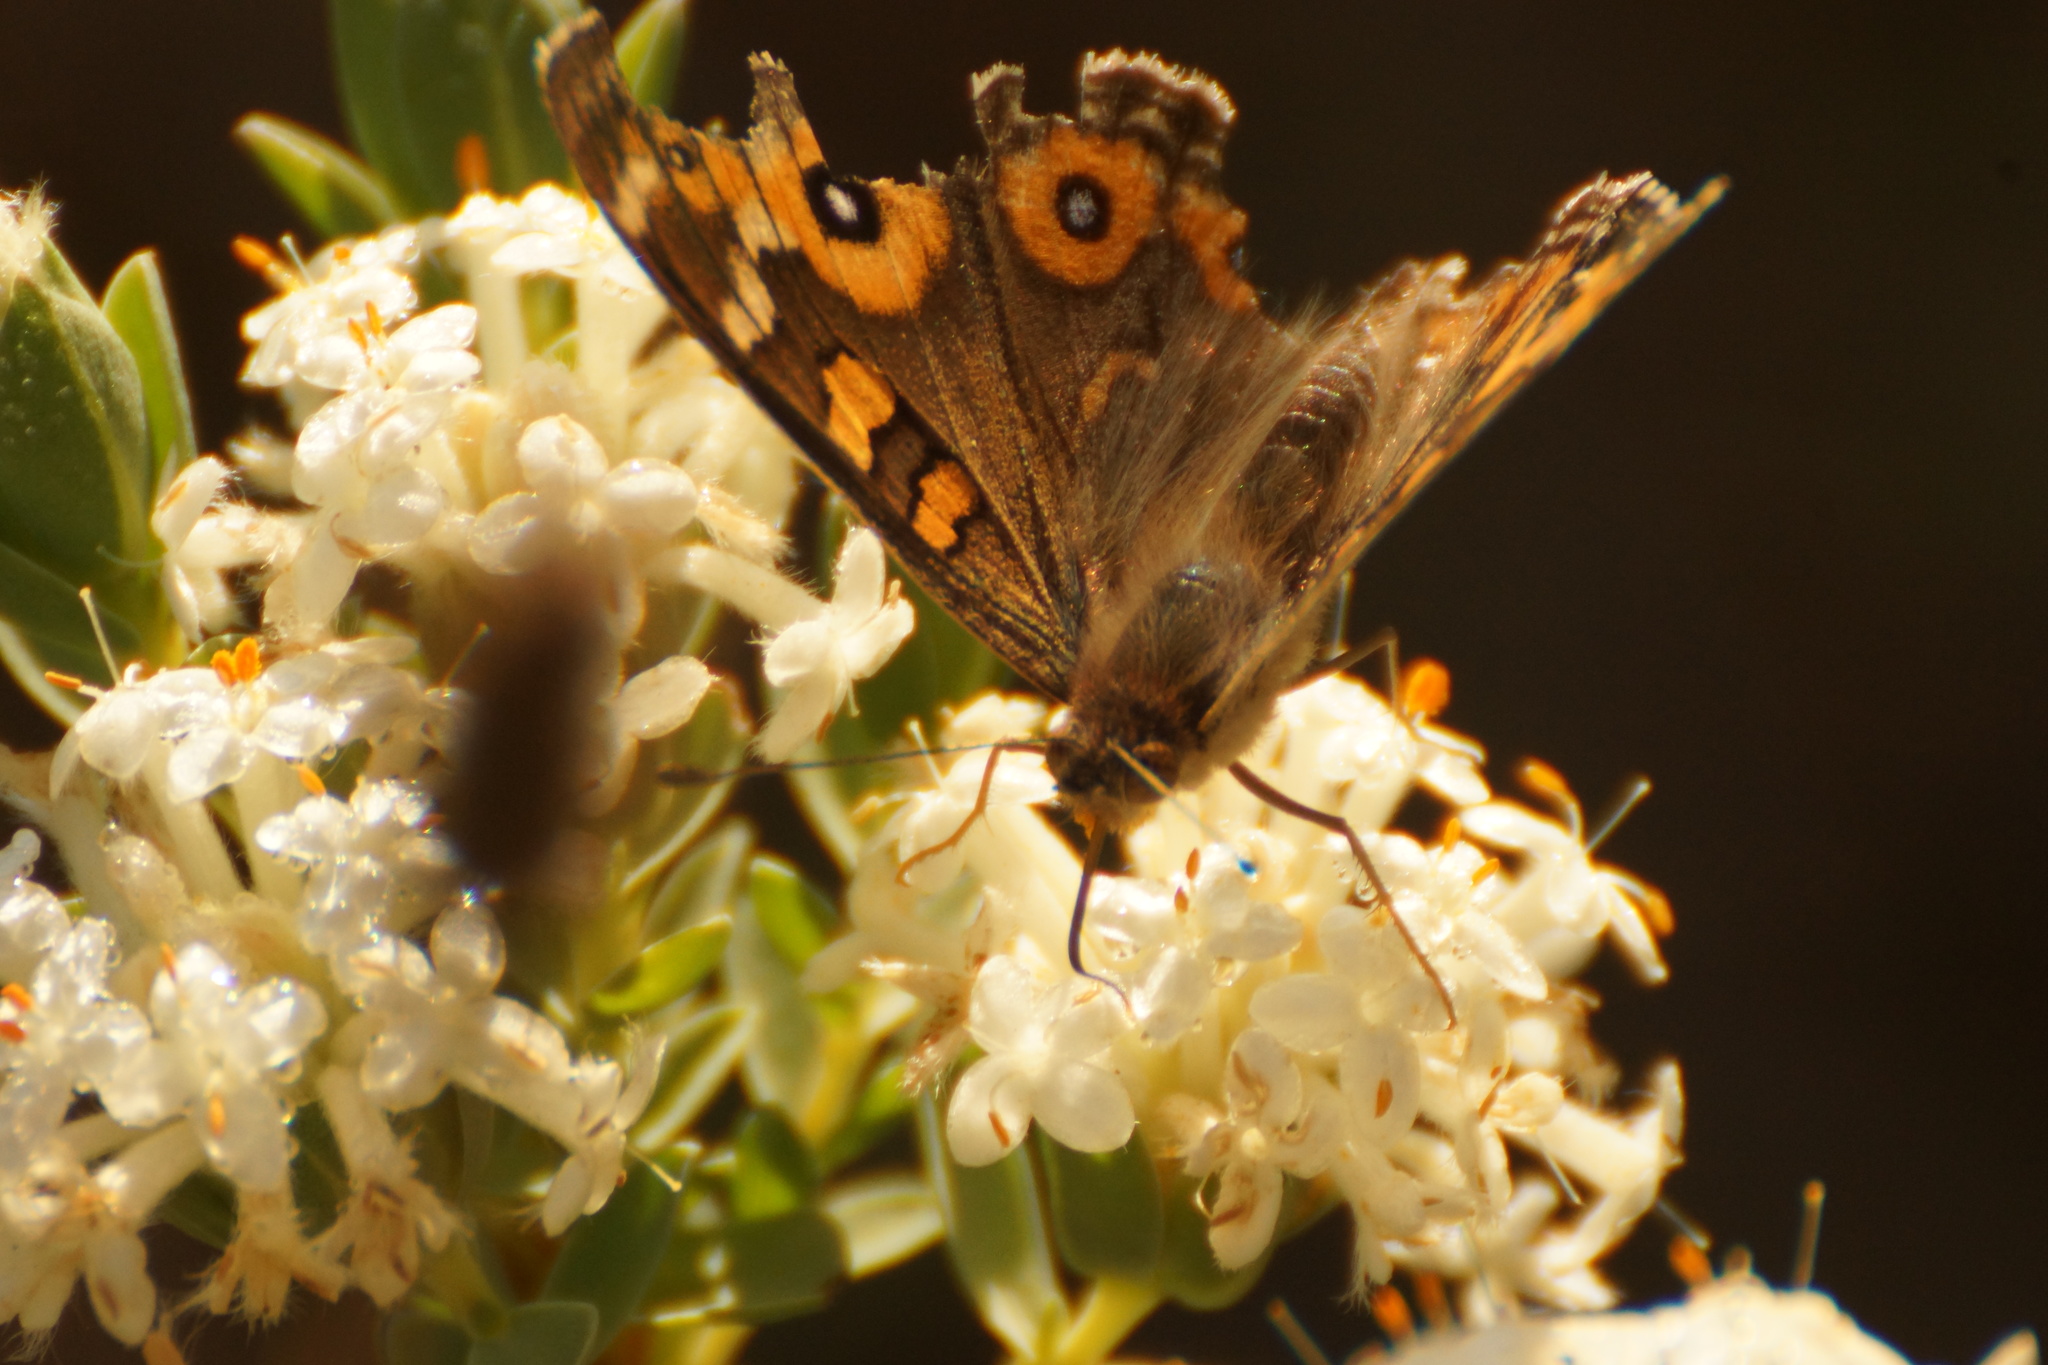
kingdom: Animalia
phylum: Arthropoda
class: Insecta
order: Lepidoptera
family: Nymphalidae
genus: Junonia
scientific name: Junonia villida
